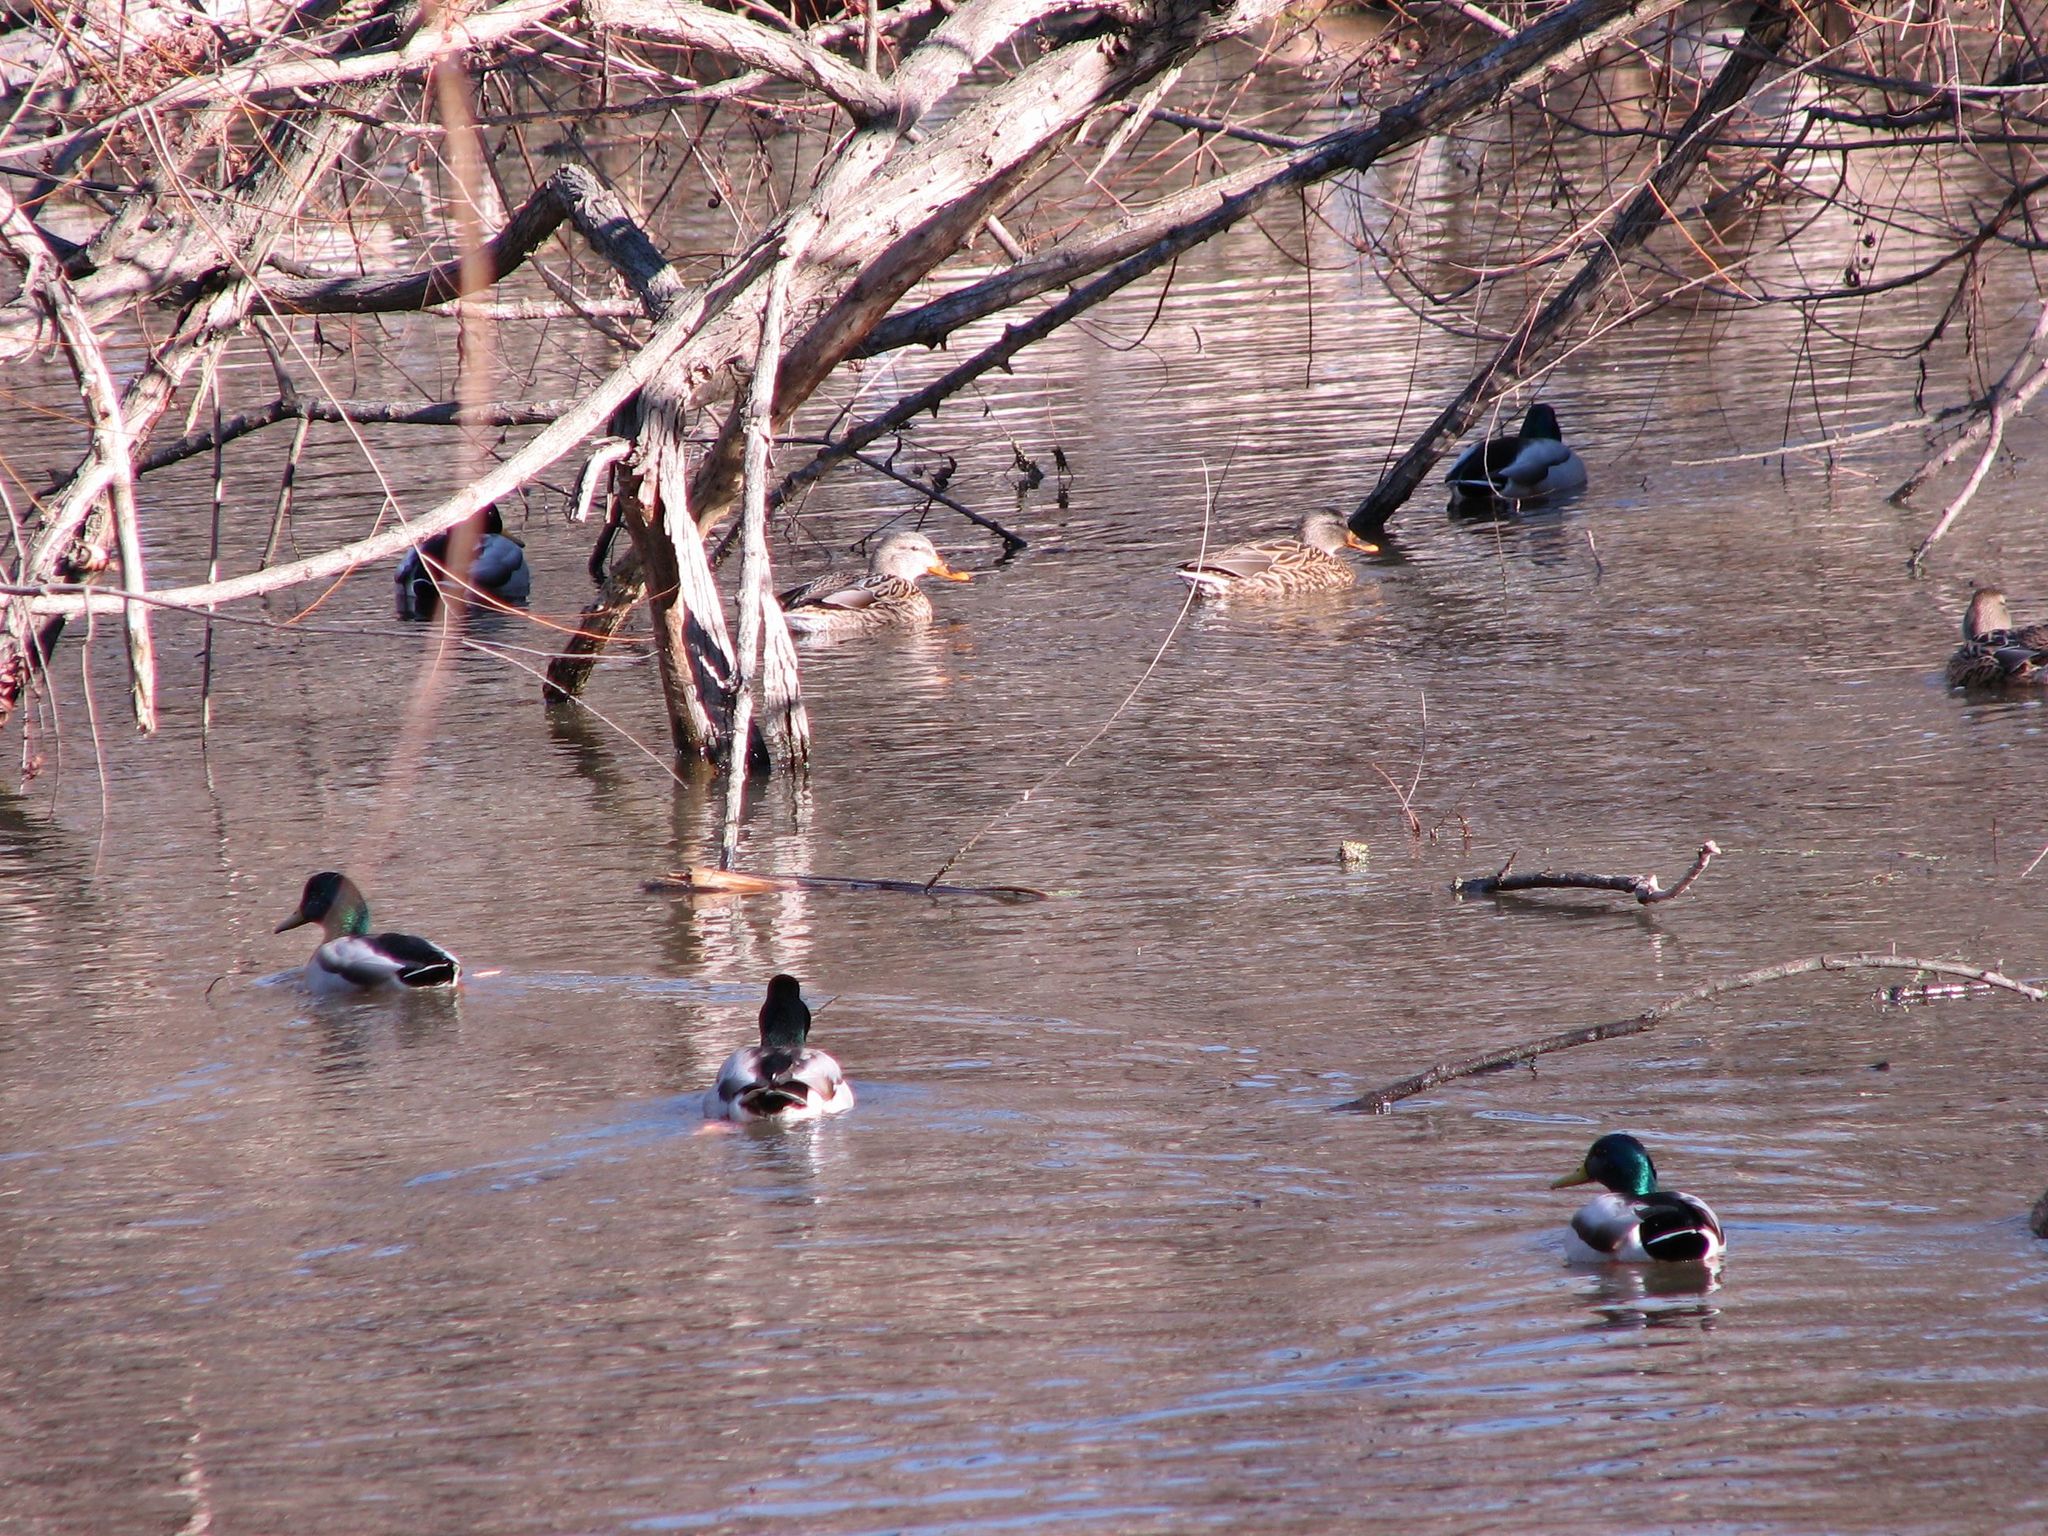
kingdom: Animalia
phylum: Chordata
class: Aves
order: Anseriformes
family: Anatidae
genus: Anas
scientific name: Anas platyrhynchos
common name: Mallard
